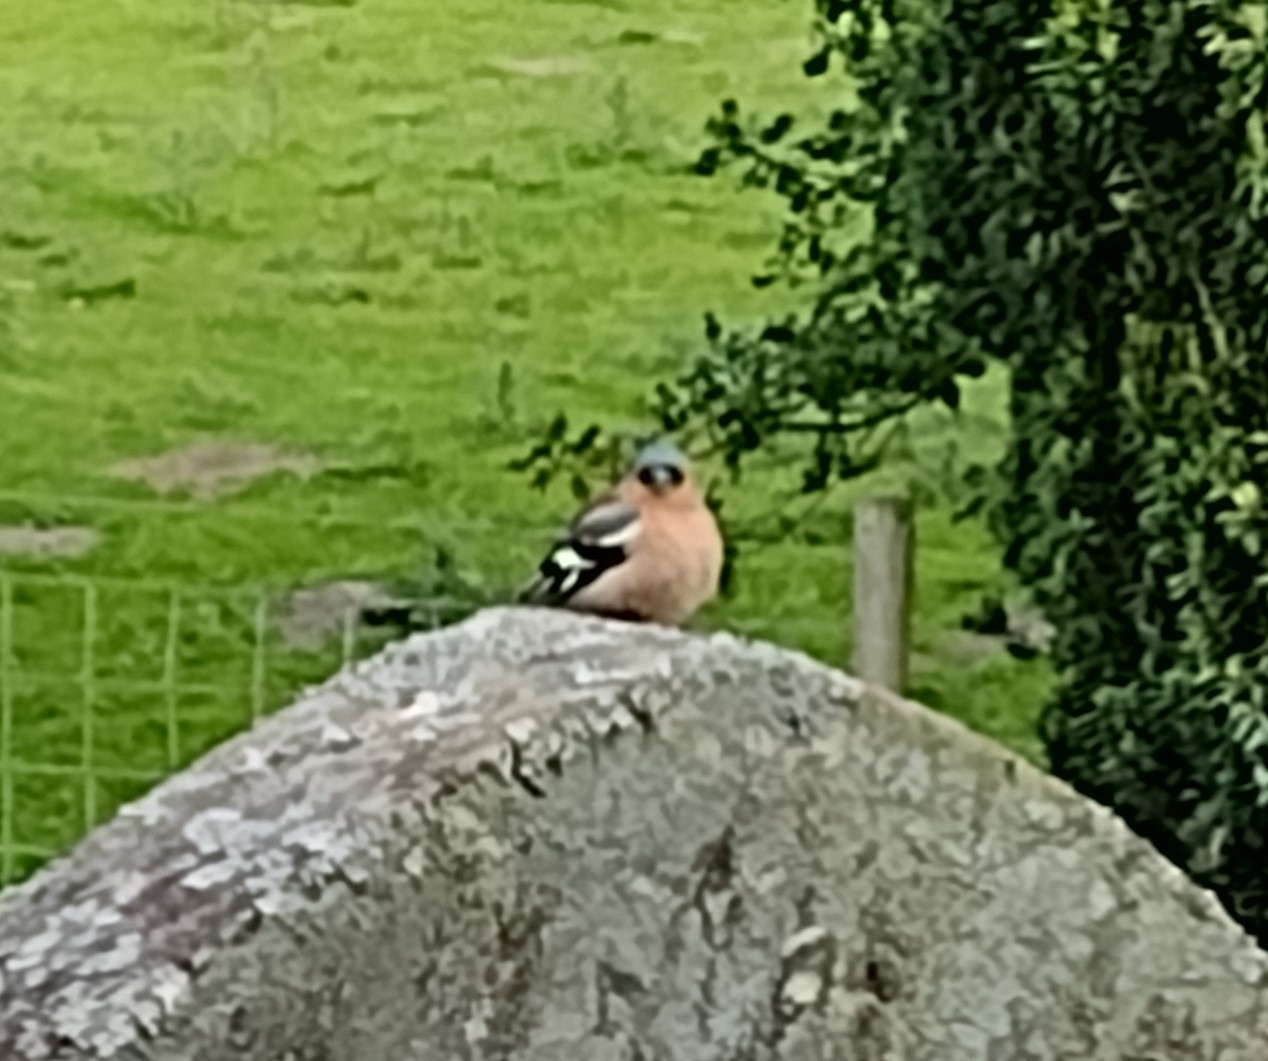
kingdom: Animalia
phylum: Chordata
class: Aves
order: Passeriformes
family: Fringillidae
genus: Fringilla
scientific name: Fringilla coelebs
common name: Common chaffinch
